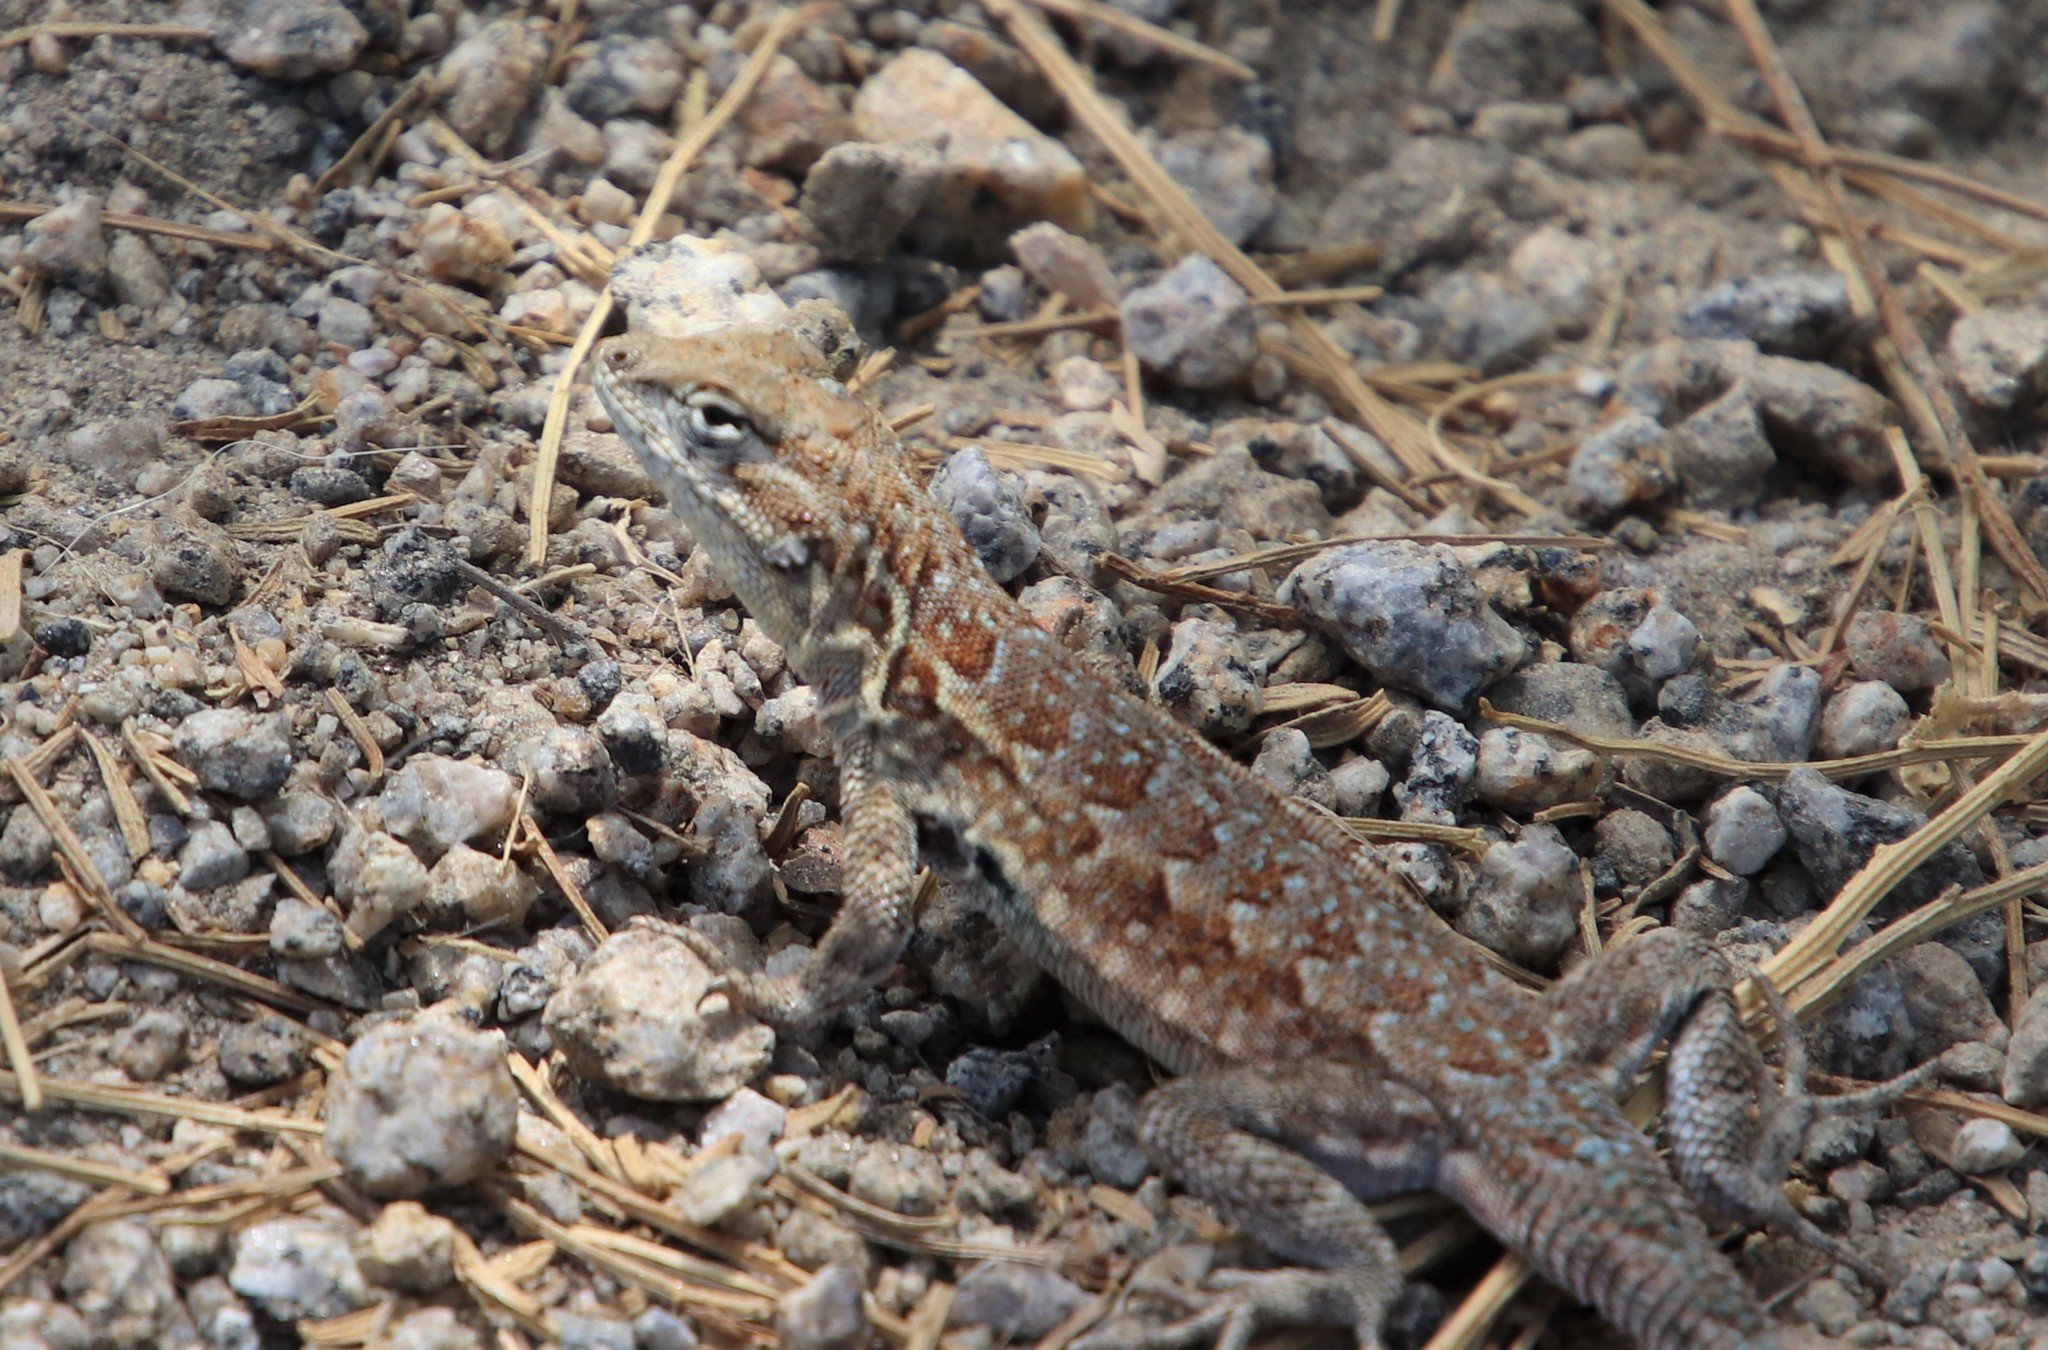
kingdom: Animalia
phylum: Chordata
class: Squamata
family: Phrynosomatidae
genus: Uta
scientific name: Uta stansburiana
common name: Side-blotched lizard
